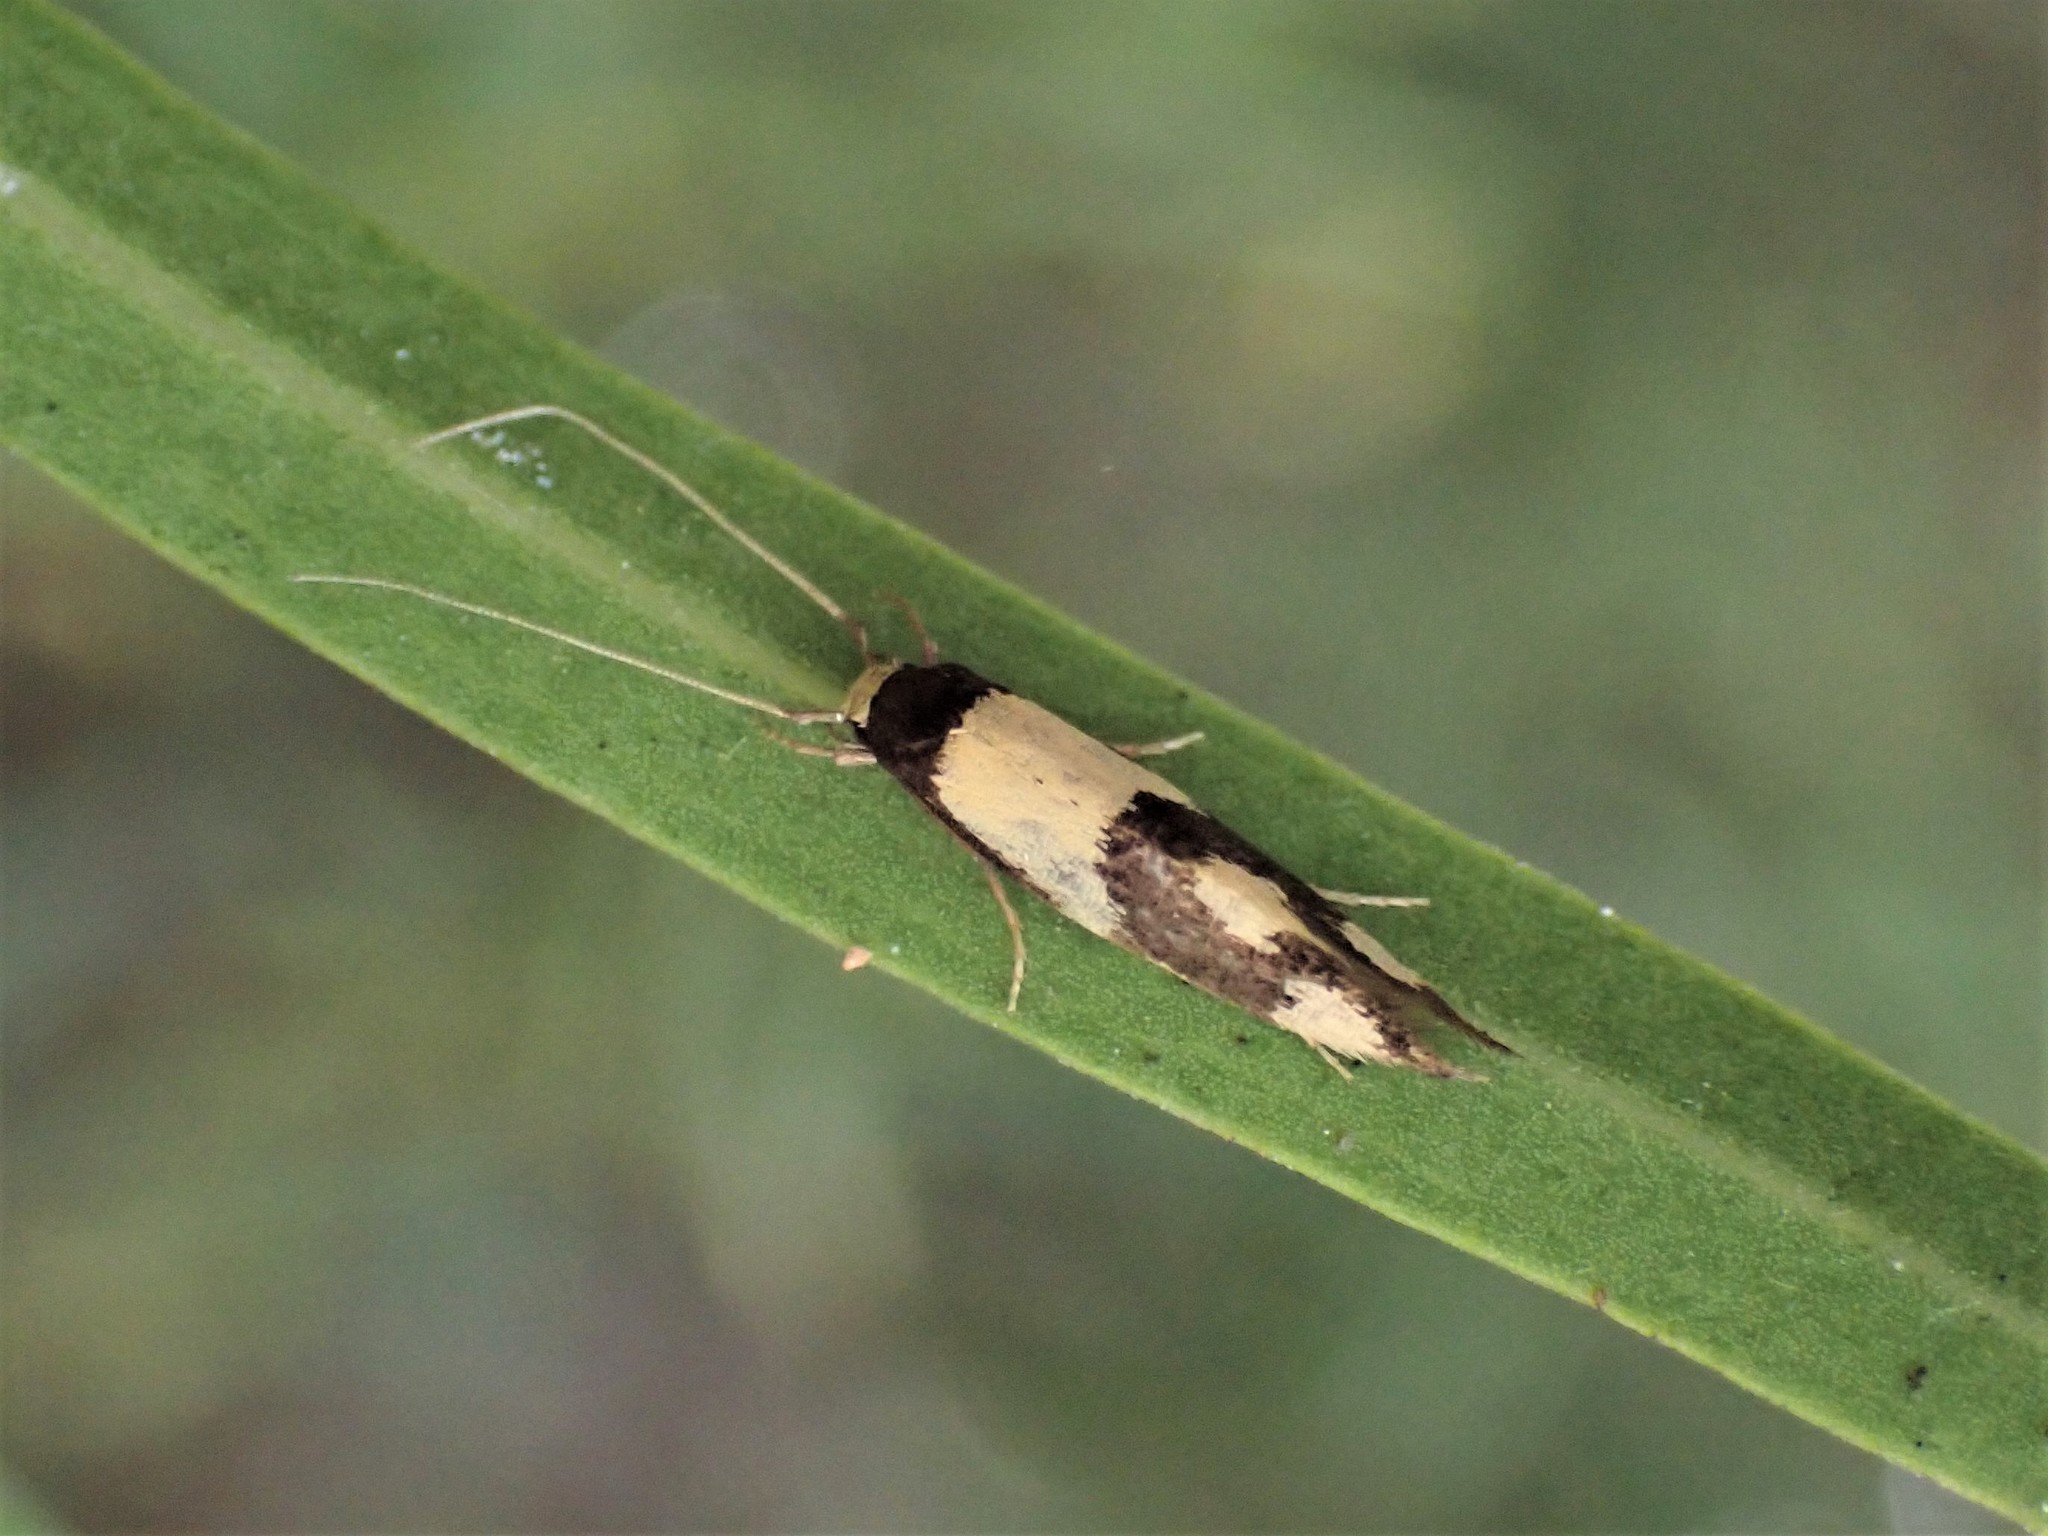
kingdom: Animalia
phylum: Arthropoda
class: Insecta
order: Lepidoptera
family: Tineidae
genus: Opogona
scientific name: Opogona comptella
